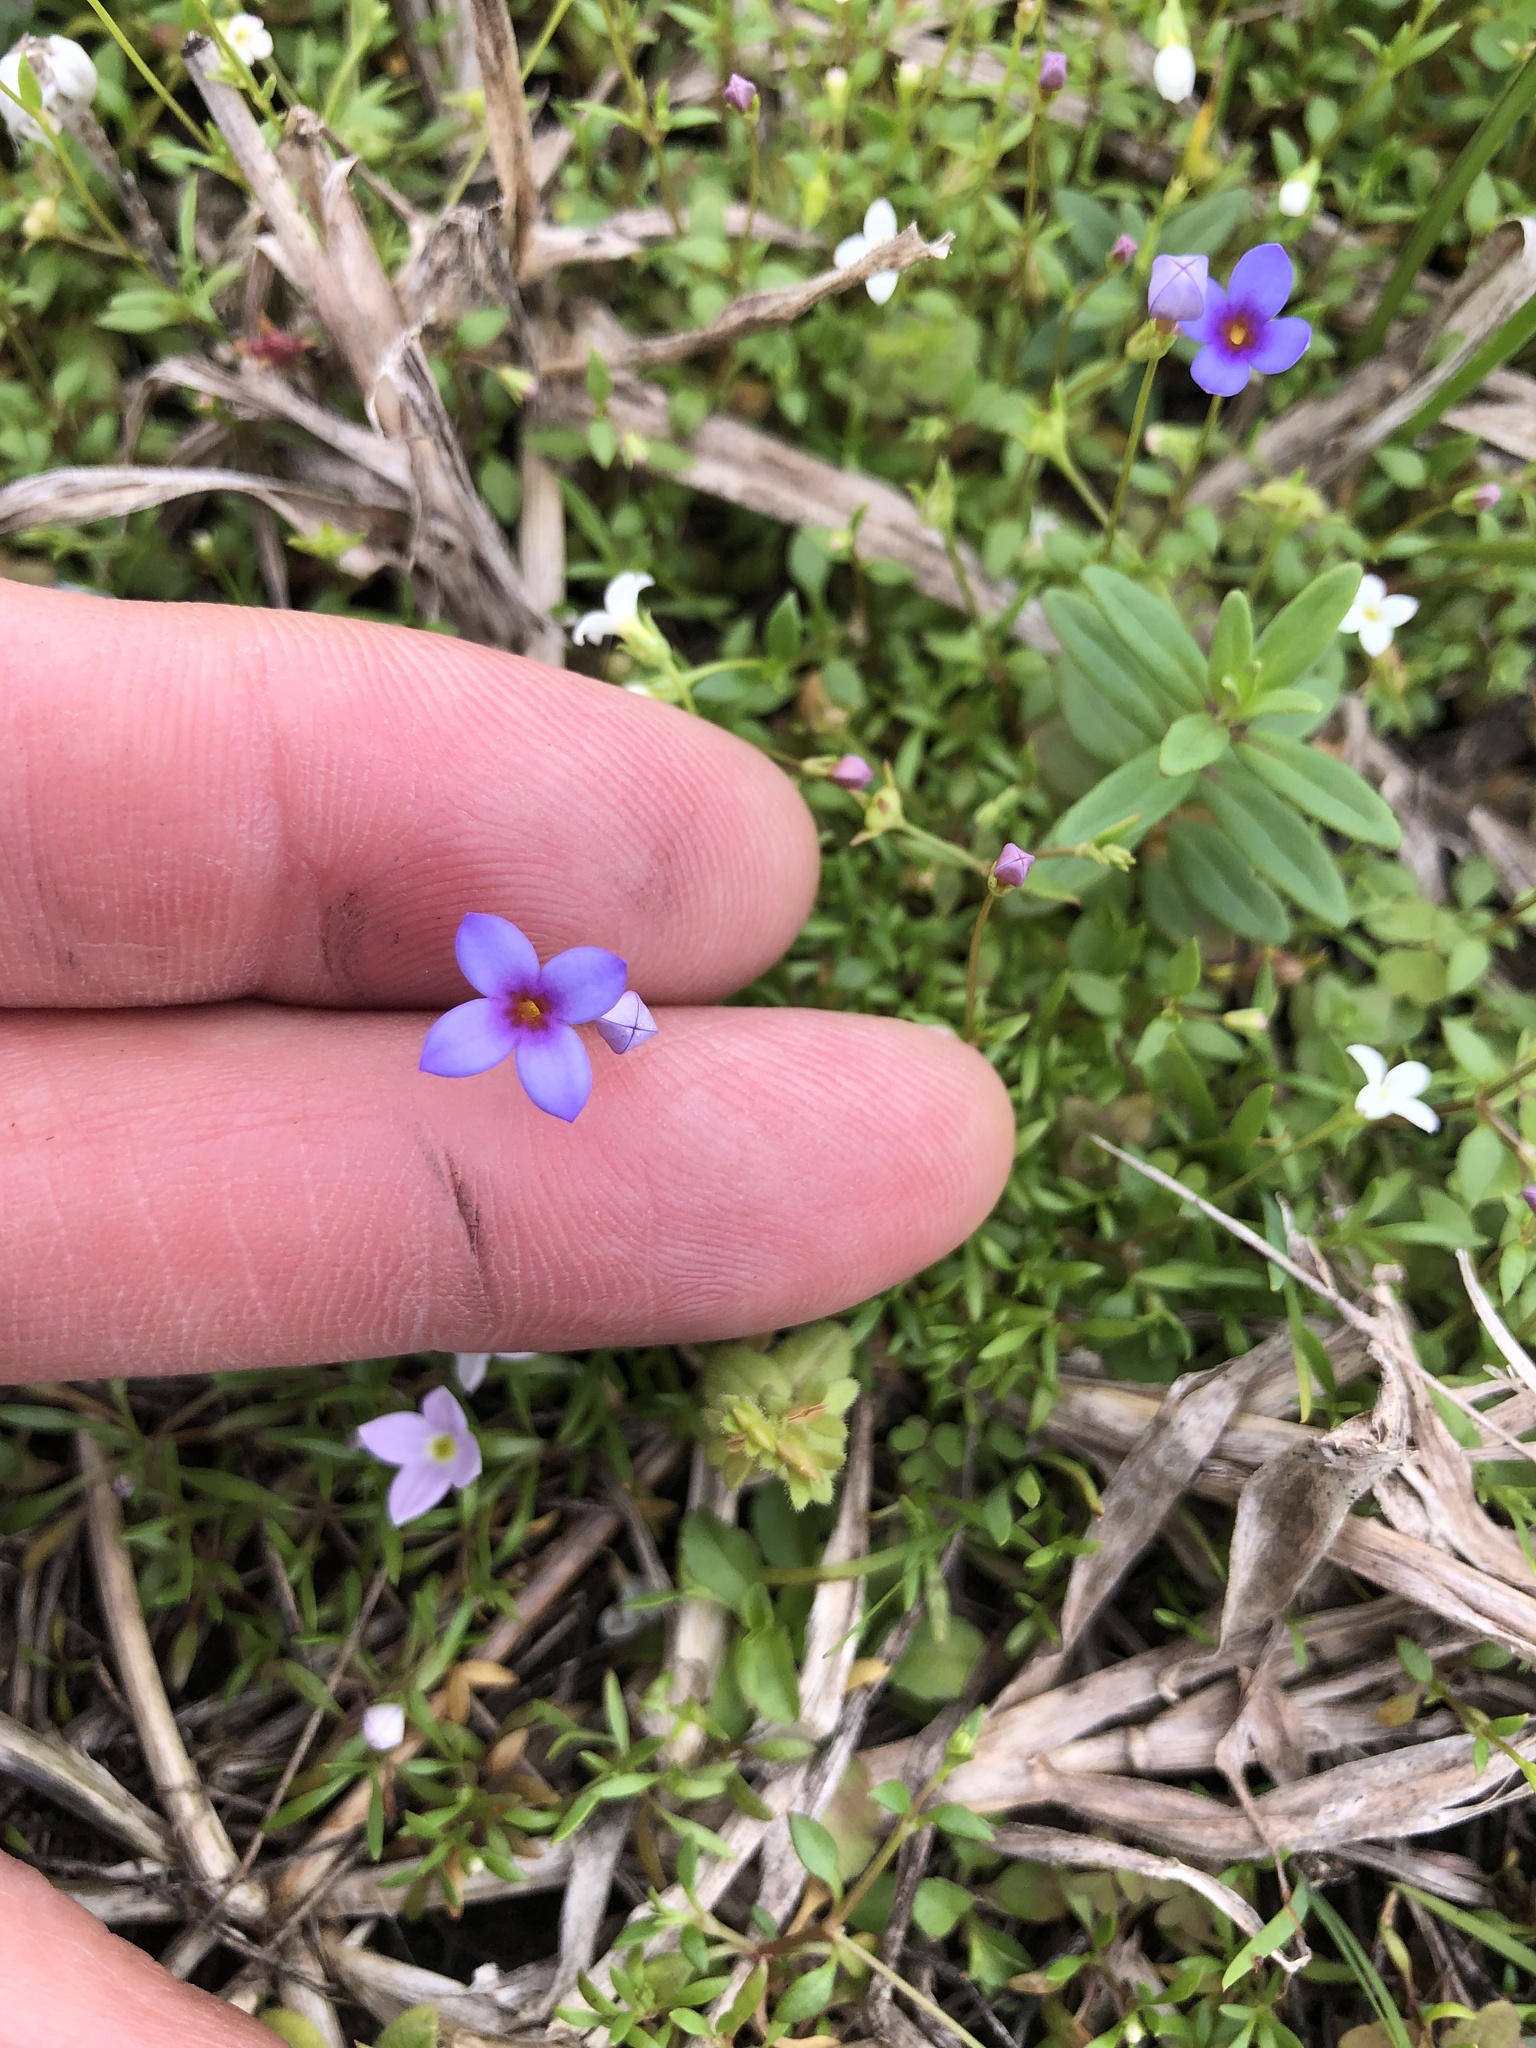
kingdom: Plantae
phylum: Tracheophyta
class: Magnoliopsida
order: Gentianales
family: Rubiaceae
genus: Houstonia
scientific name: Houstonia pusilla
